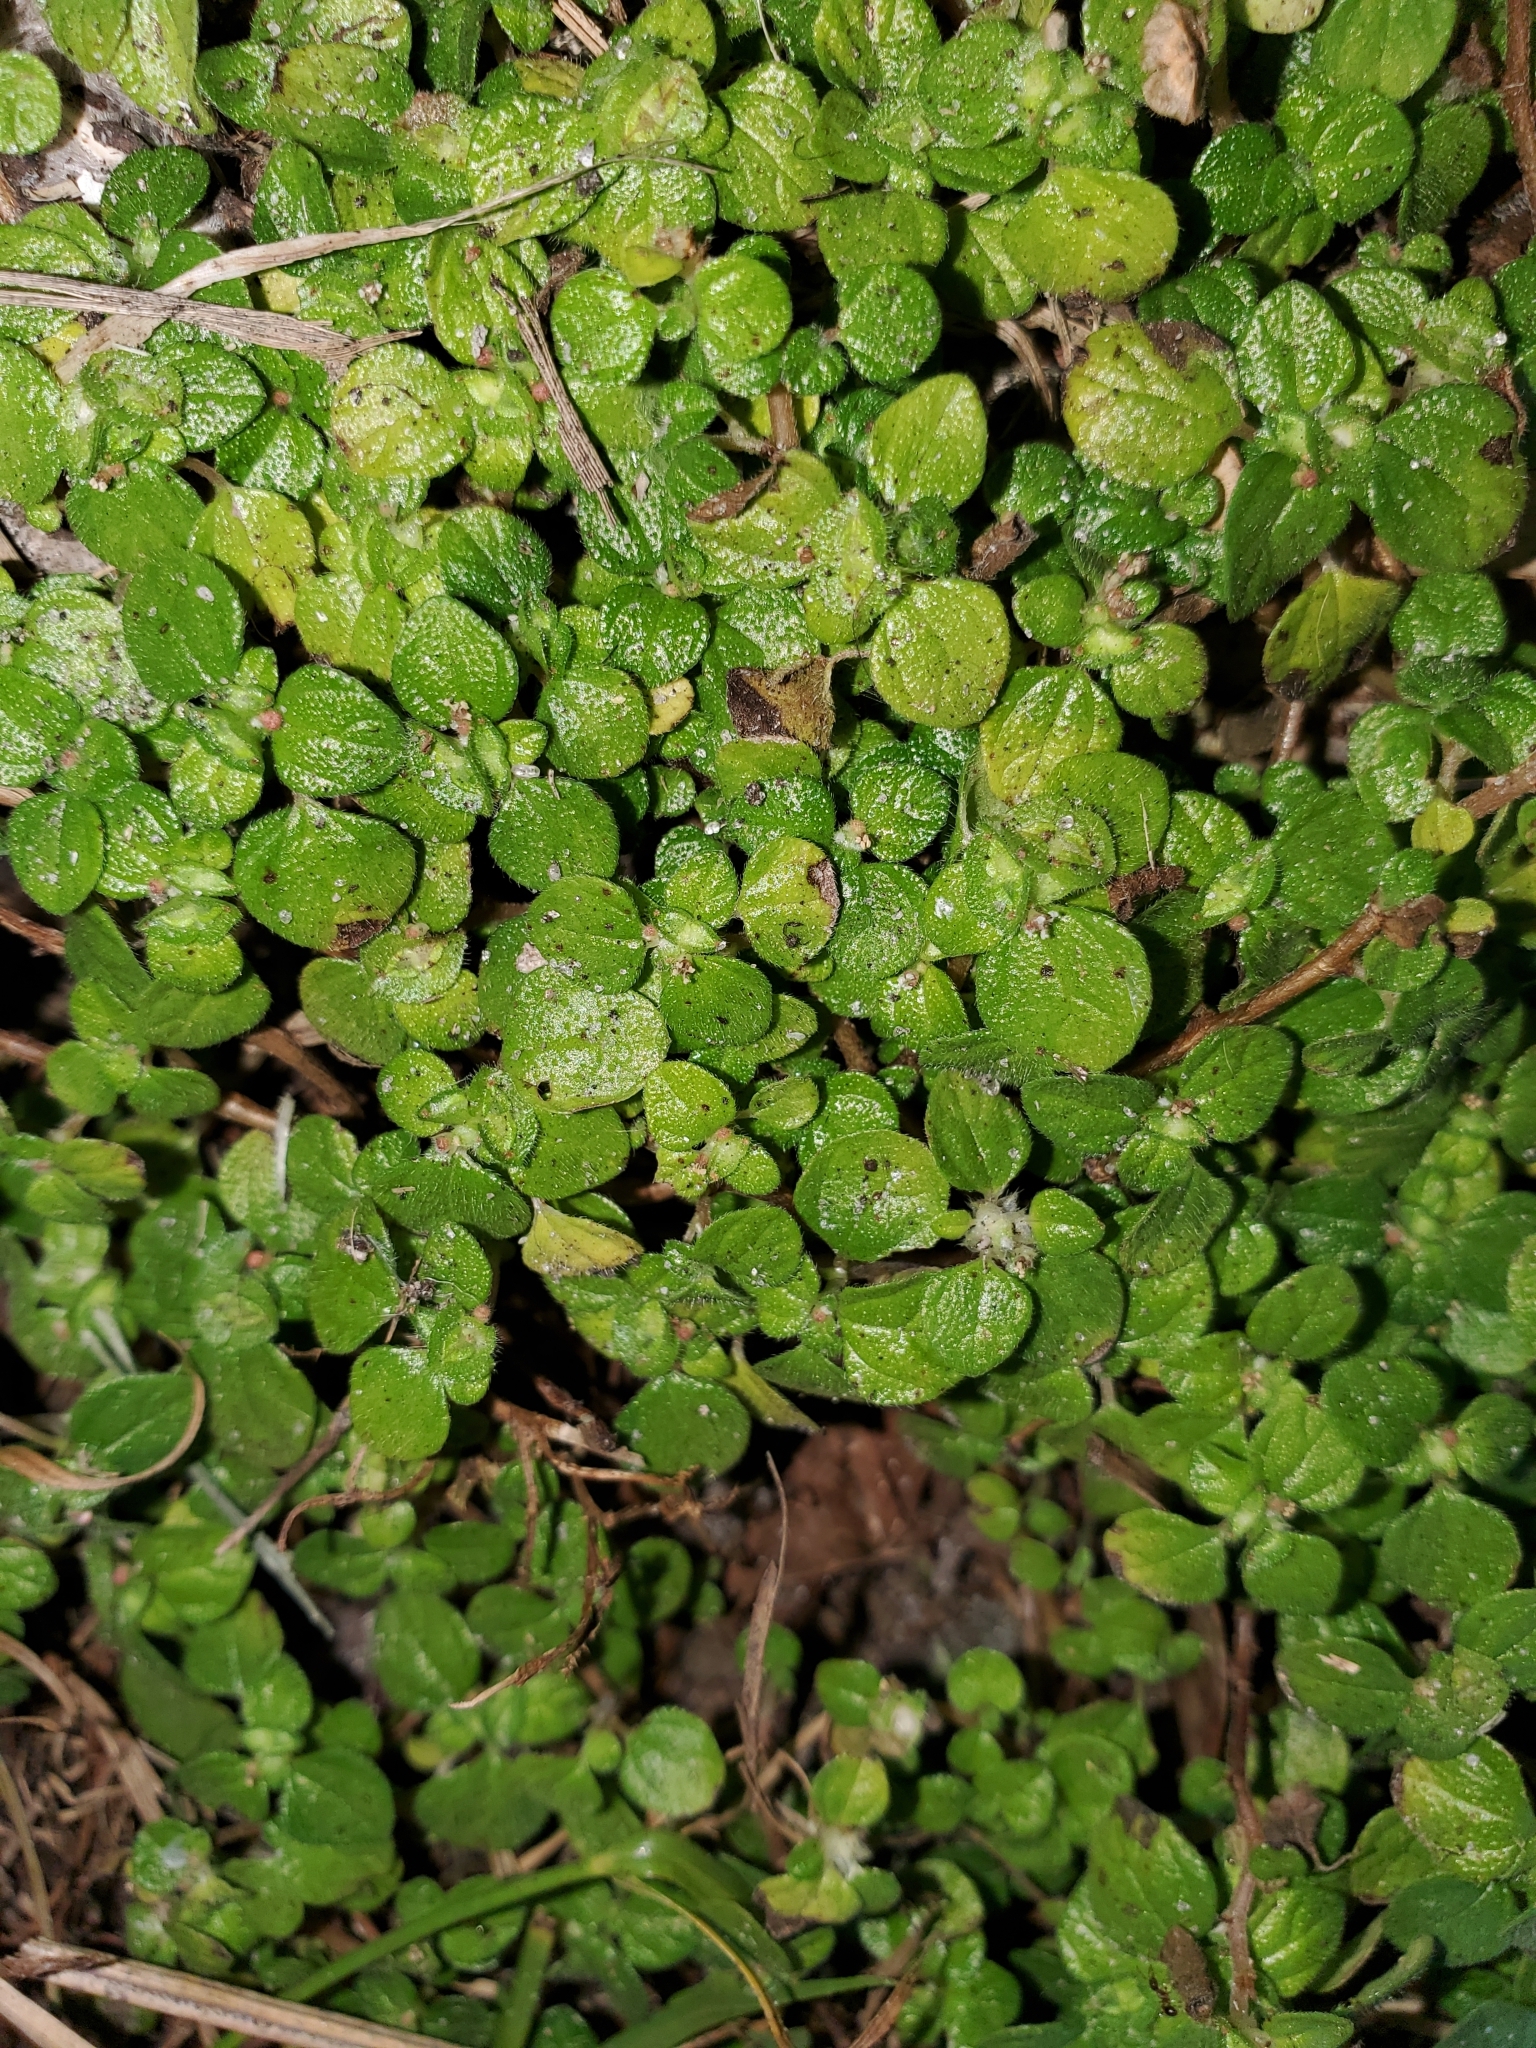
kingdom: Plantae
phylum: Tracheophyta
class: Magnoliopsida
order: Rosales
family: Urticaceae
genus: Rousselia
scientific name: Rousselia humilis
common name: Shineseed
